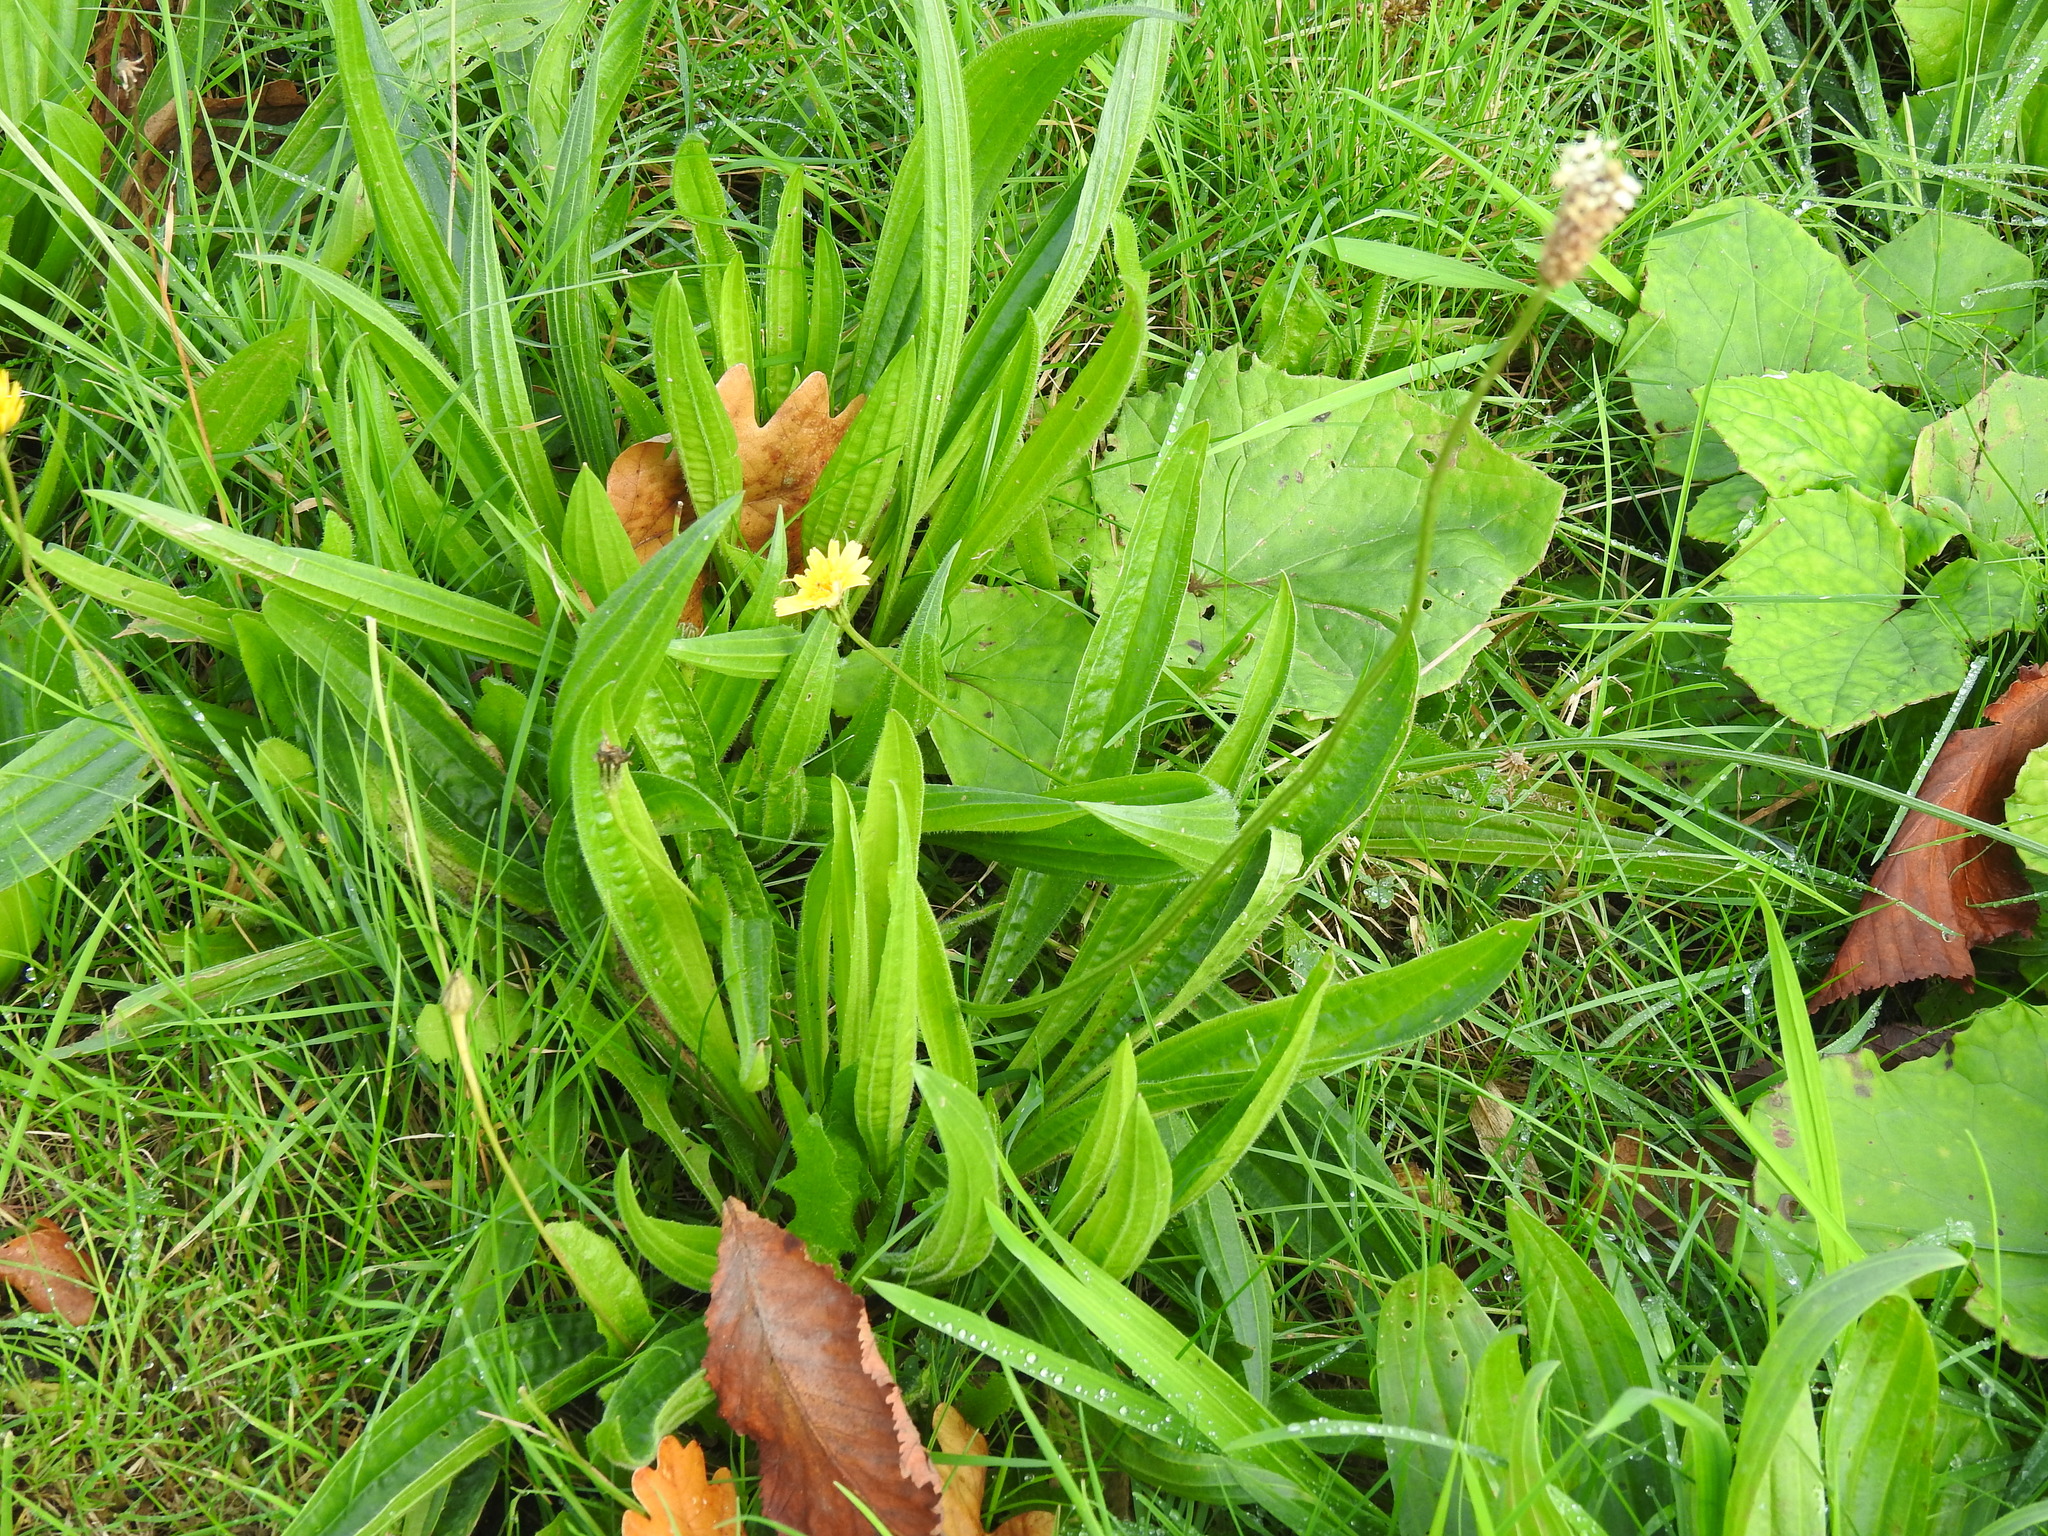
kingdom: Plantae
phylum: Tracheophyta
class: Magnoliopsida
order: Lamiales
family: Plantaginaceae
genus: Plantago
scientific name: Plantago lanceolata
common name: Ribwort plantain
